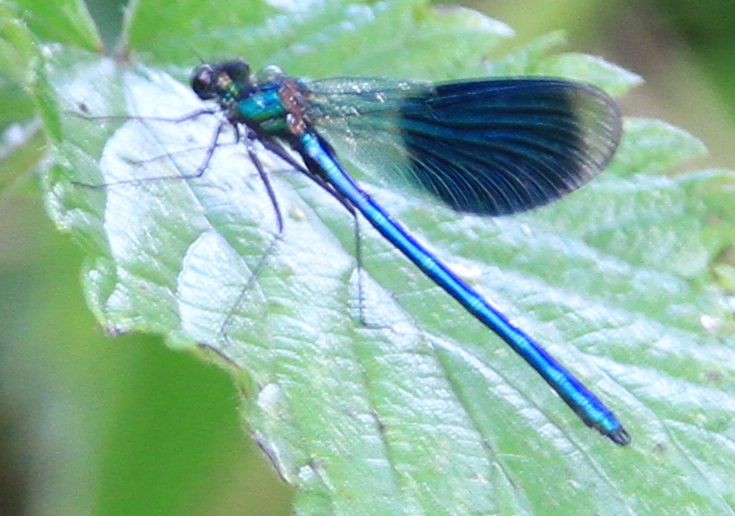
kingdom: Animalia
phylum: Arthropoda
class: Insecta
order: Odonata
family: Calopterygidae
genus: Calopteryx
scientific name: Calopteryx splendens
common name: Banded demoiselle
